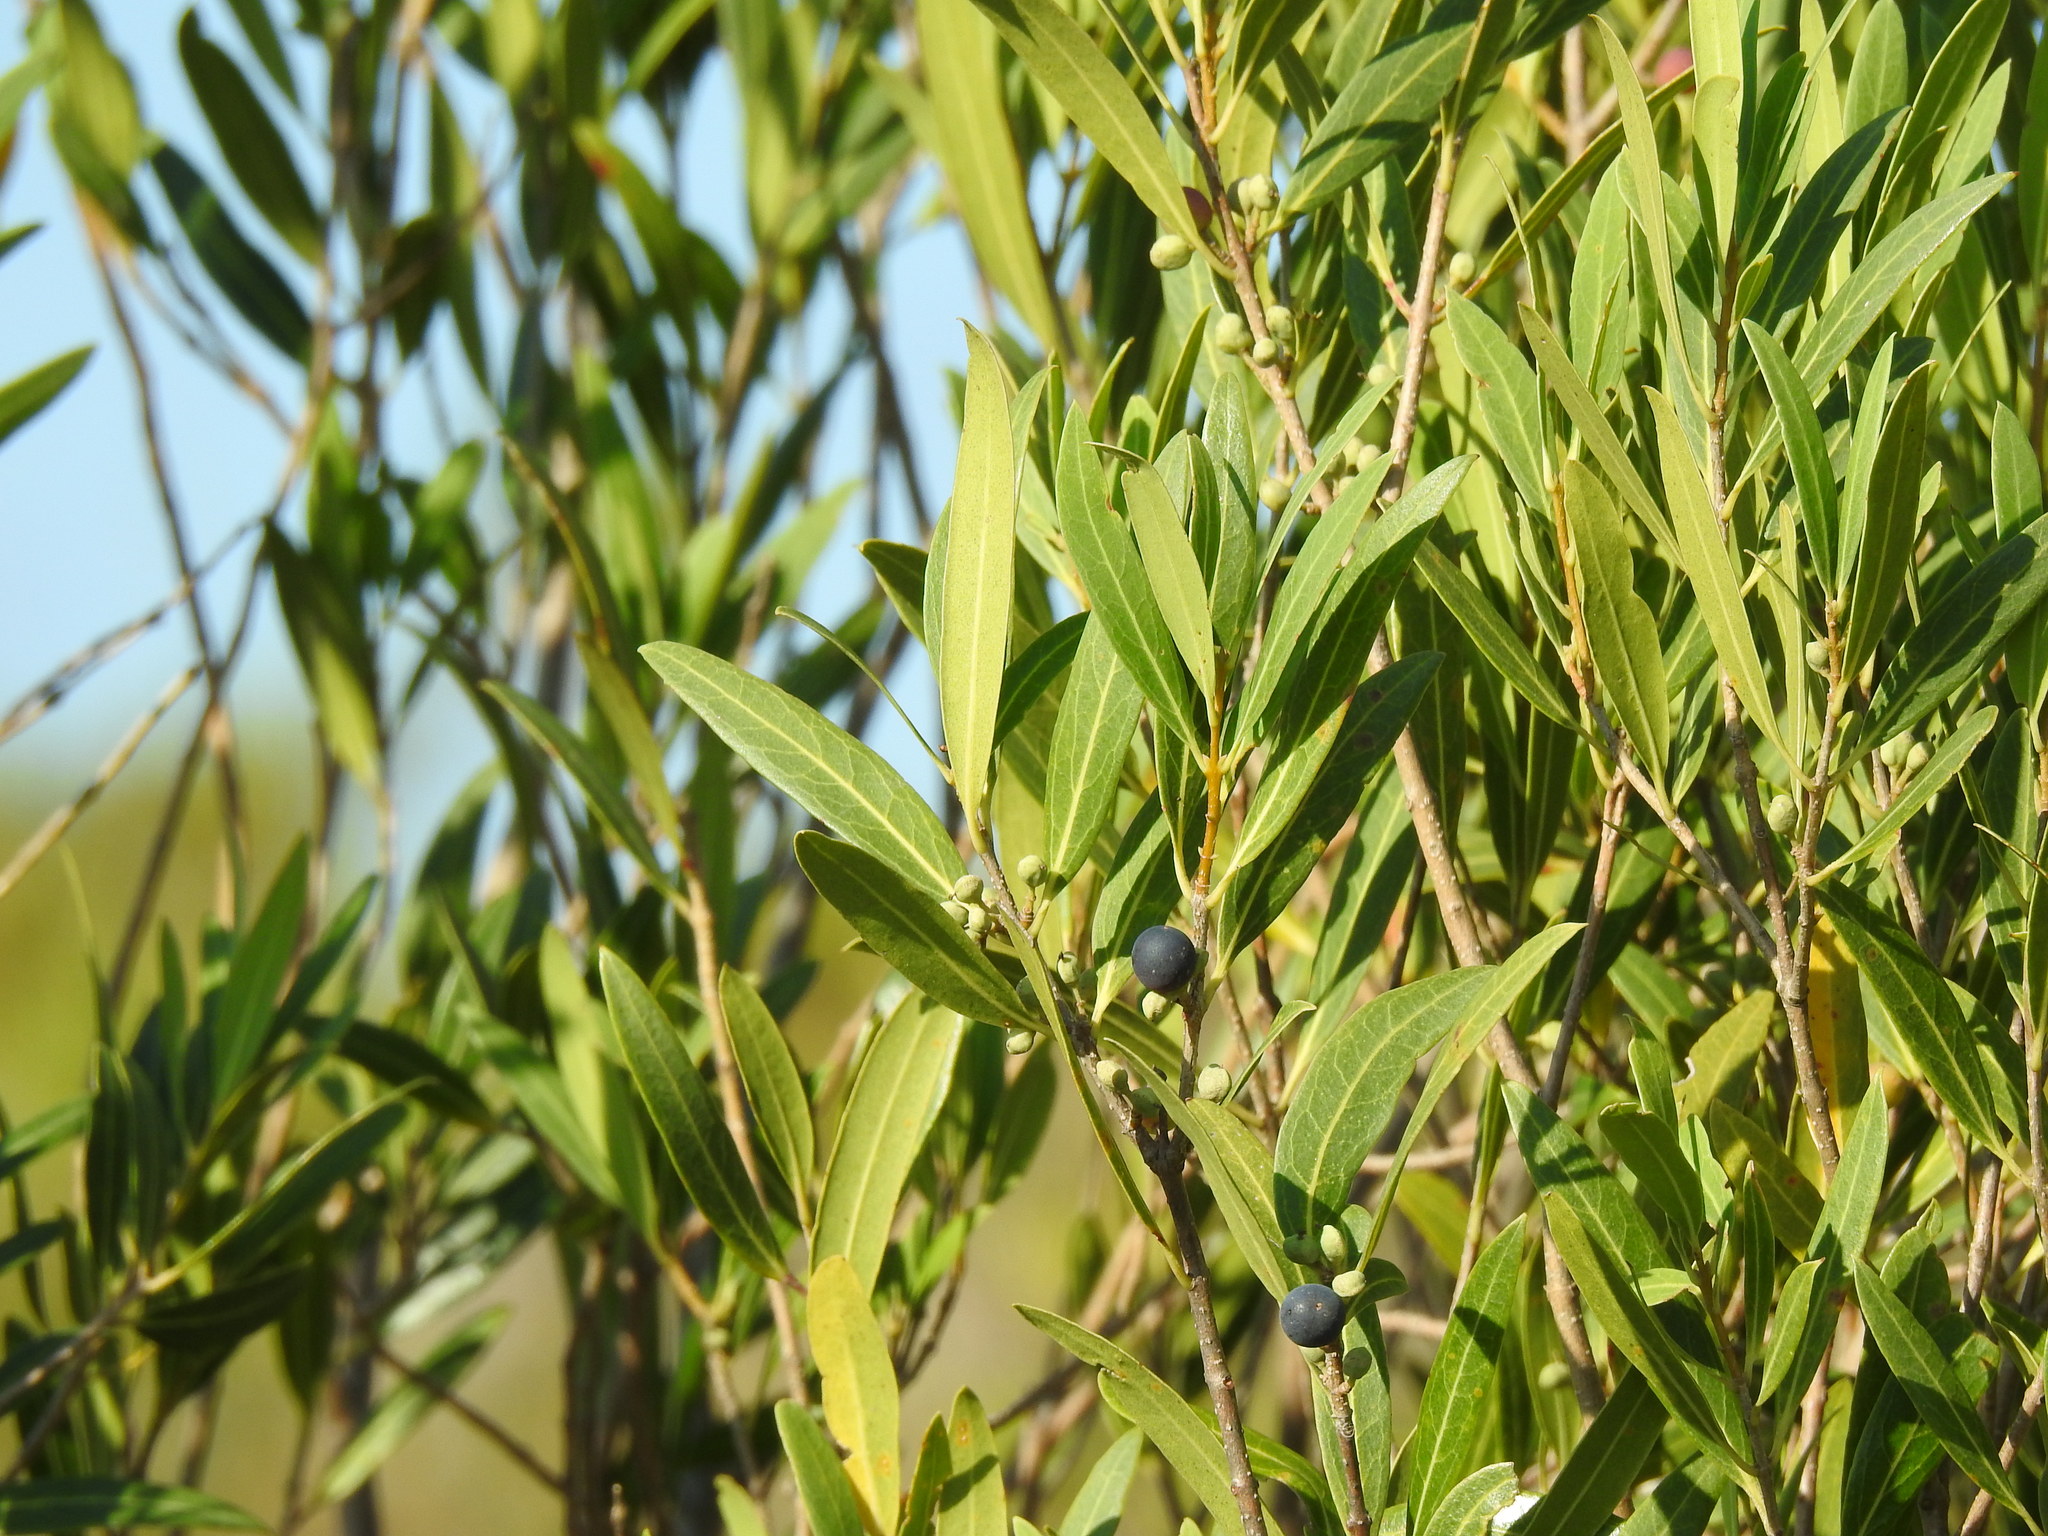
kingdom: Plantae
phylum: Tracheophyta
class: Magnoliopsida
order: Lamiales
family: Oleaceae
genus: Phillyrea
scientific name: Phillyrea angustifolia
